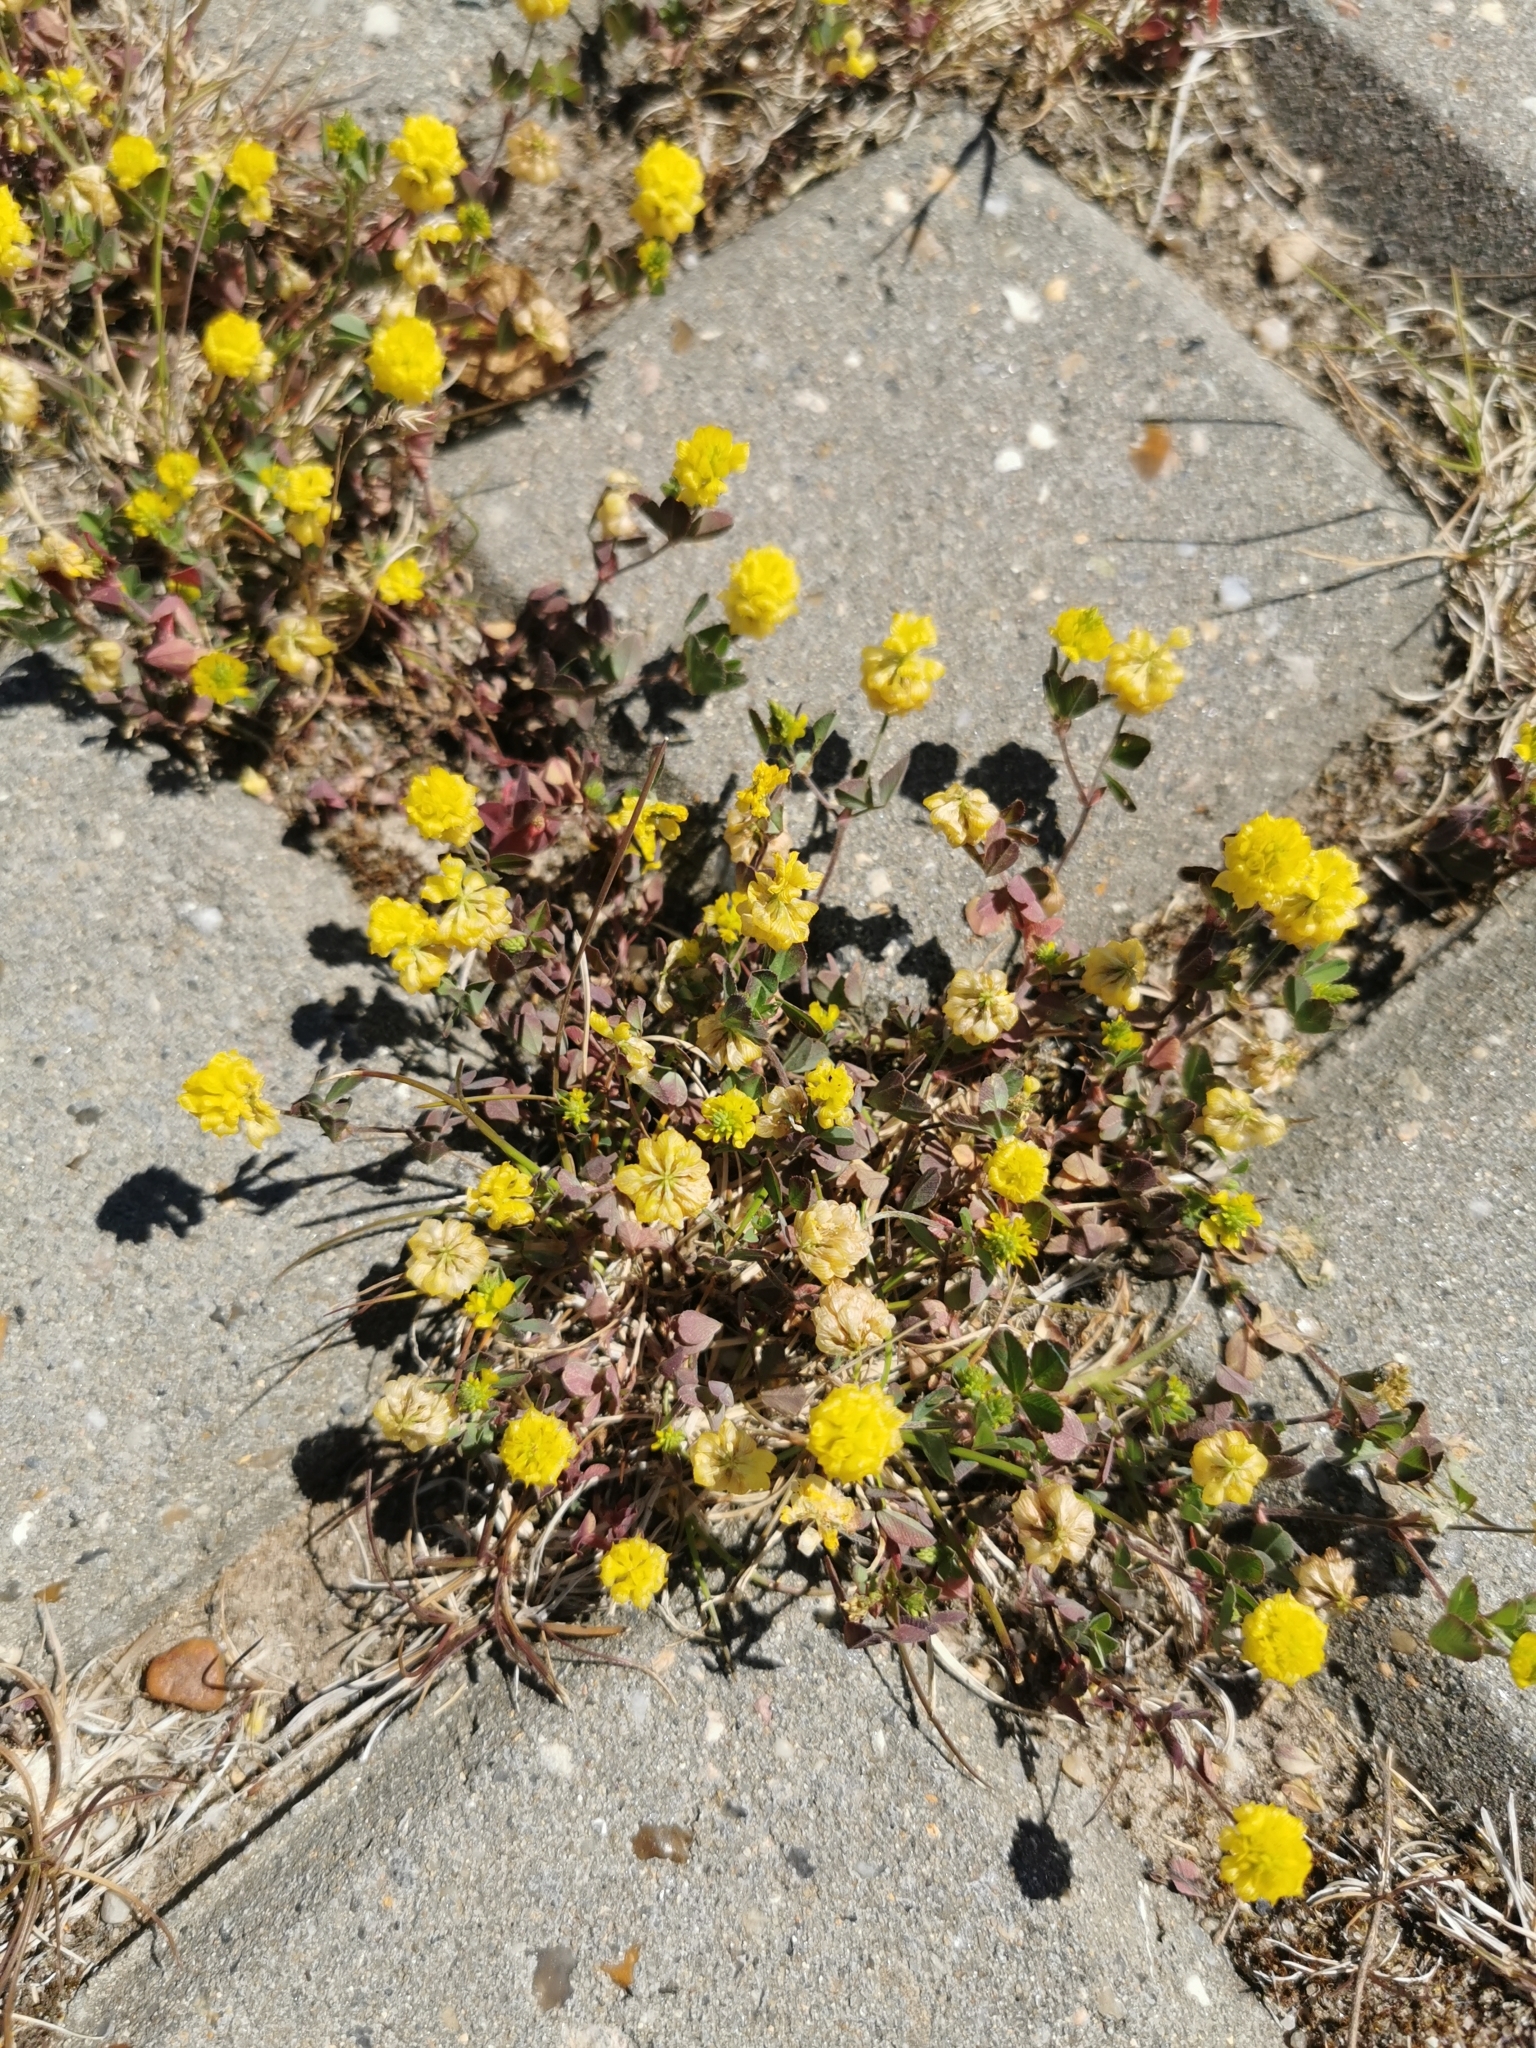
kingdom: Plantae
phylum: Tracheophyta
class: Magnoliopsida
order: Fabales
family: Fabaceae
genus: Trifolium
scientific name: Trifolium campestre
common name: Field clover
